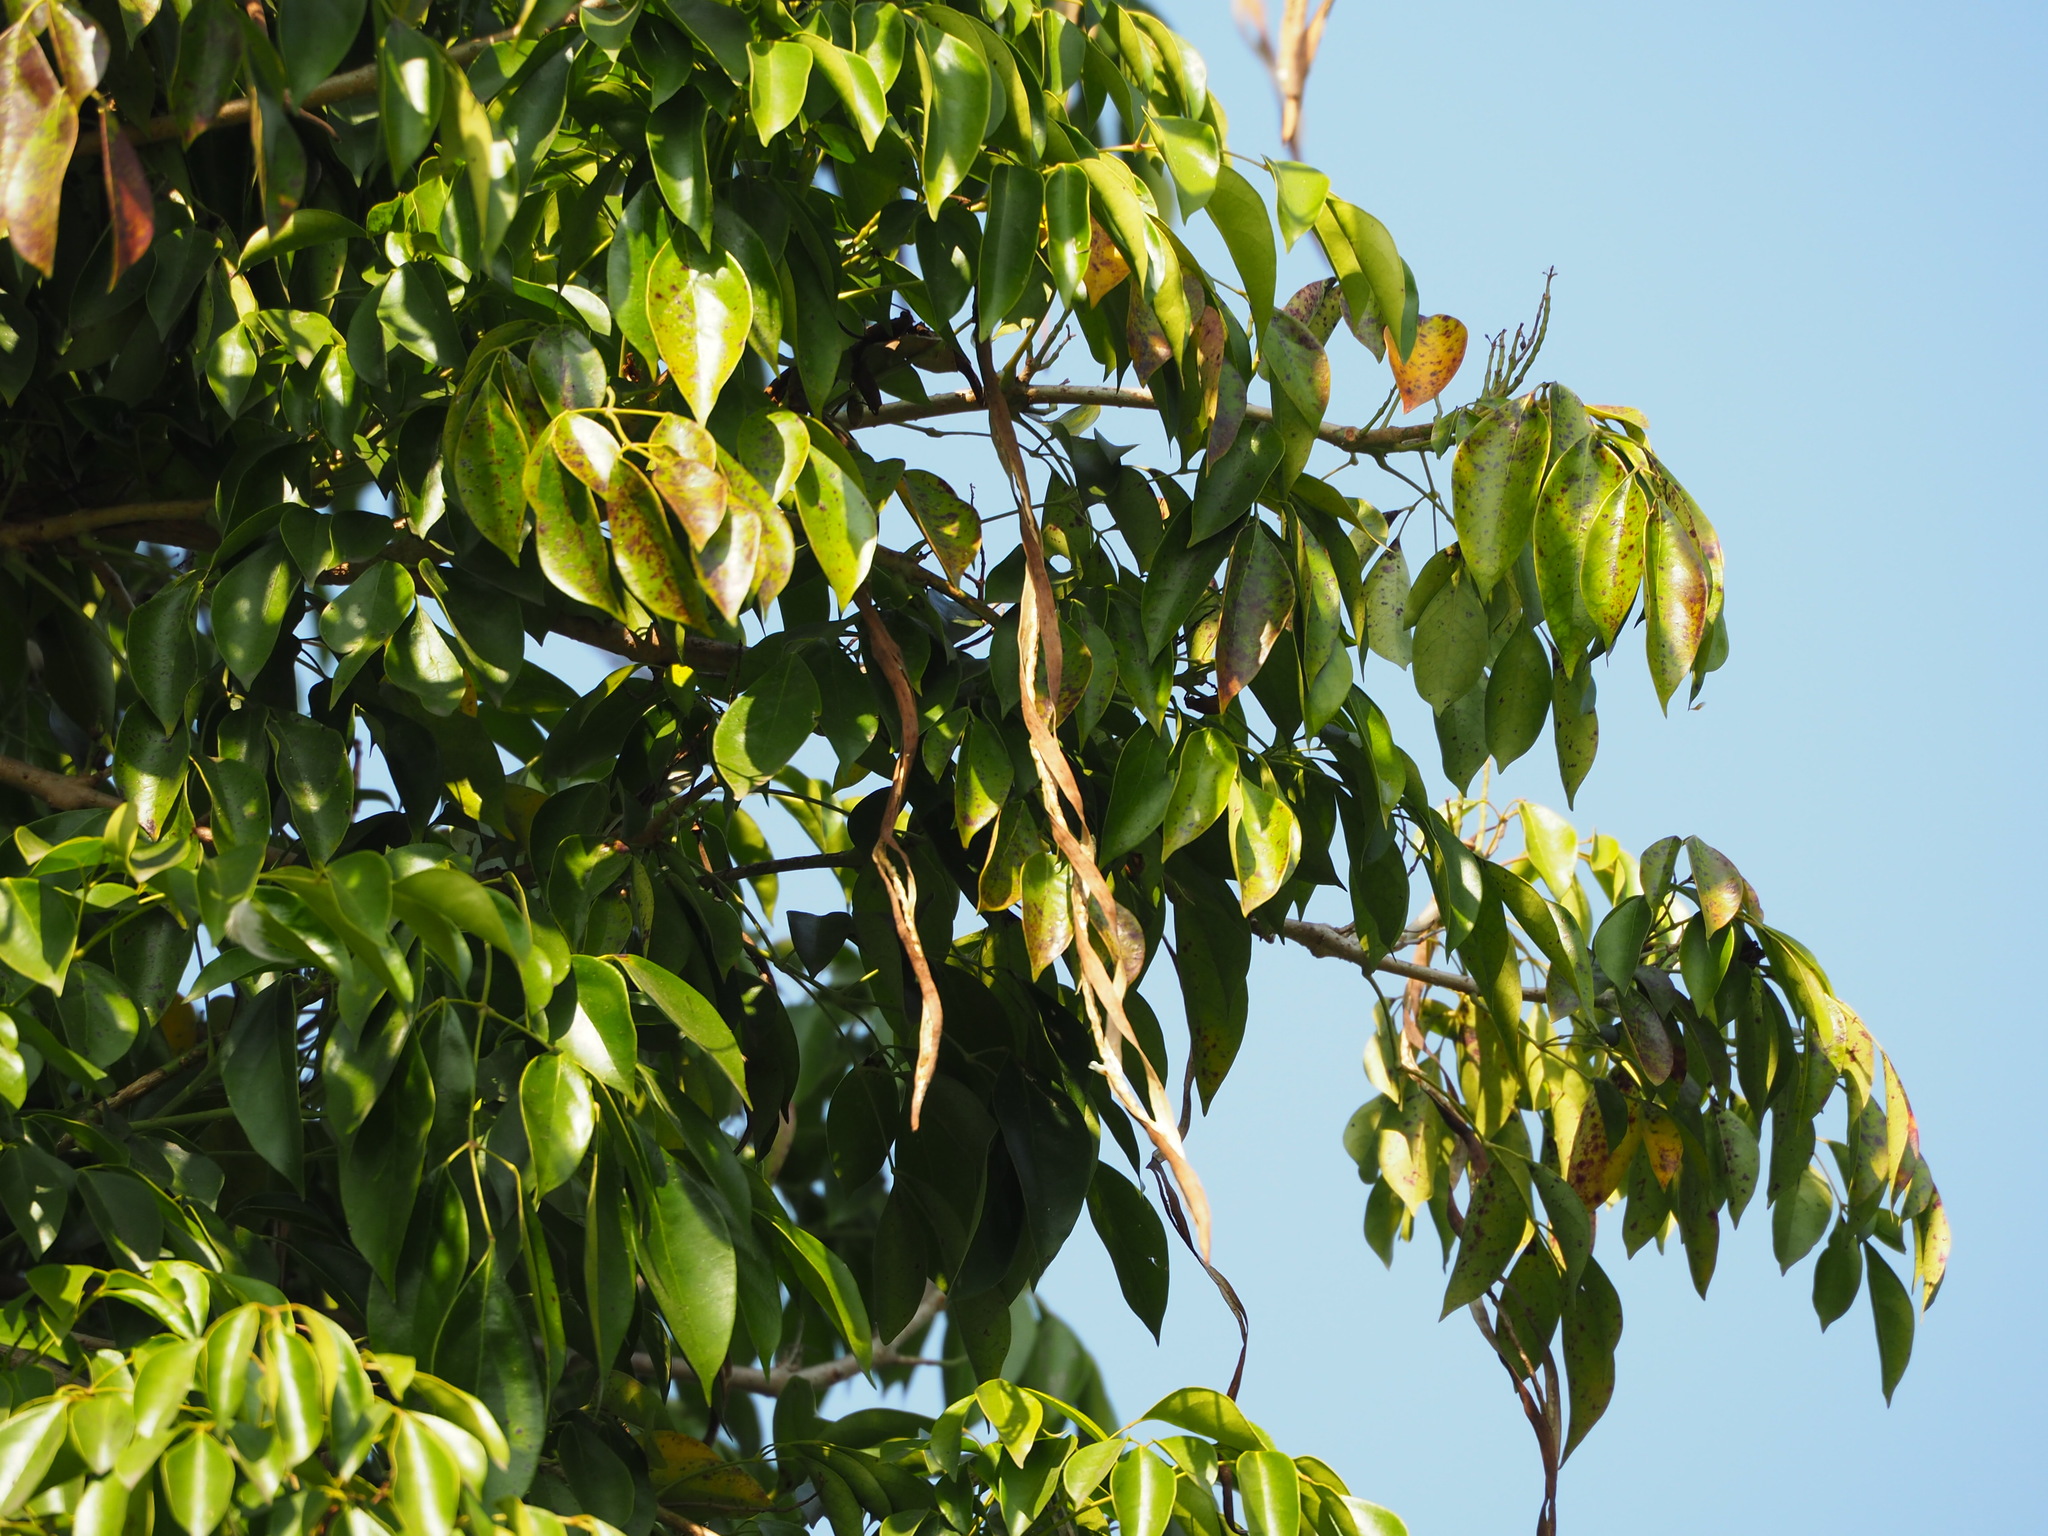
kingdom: Plantae
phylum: Tracheophyta
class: Magnoliopsida
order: Lamiales
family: Bignoniaceae
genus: Radermachera
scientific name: Radermachera sinica
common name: China doll plant
